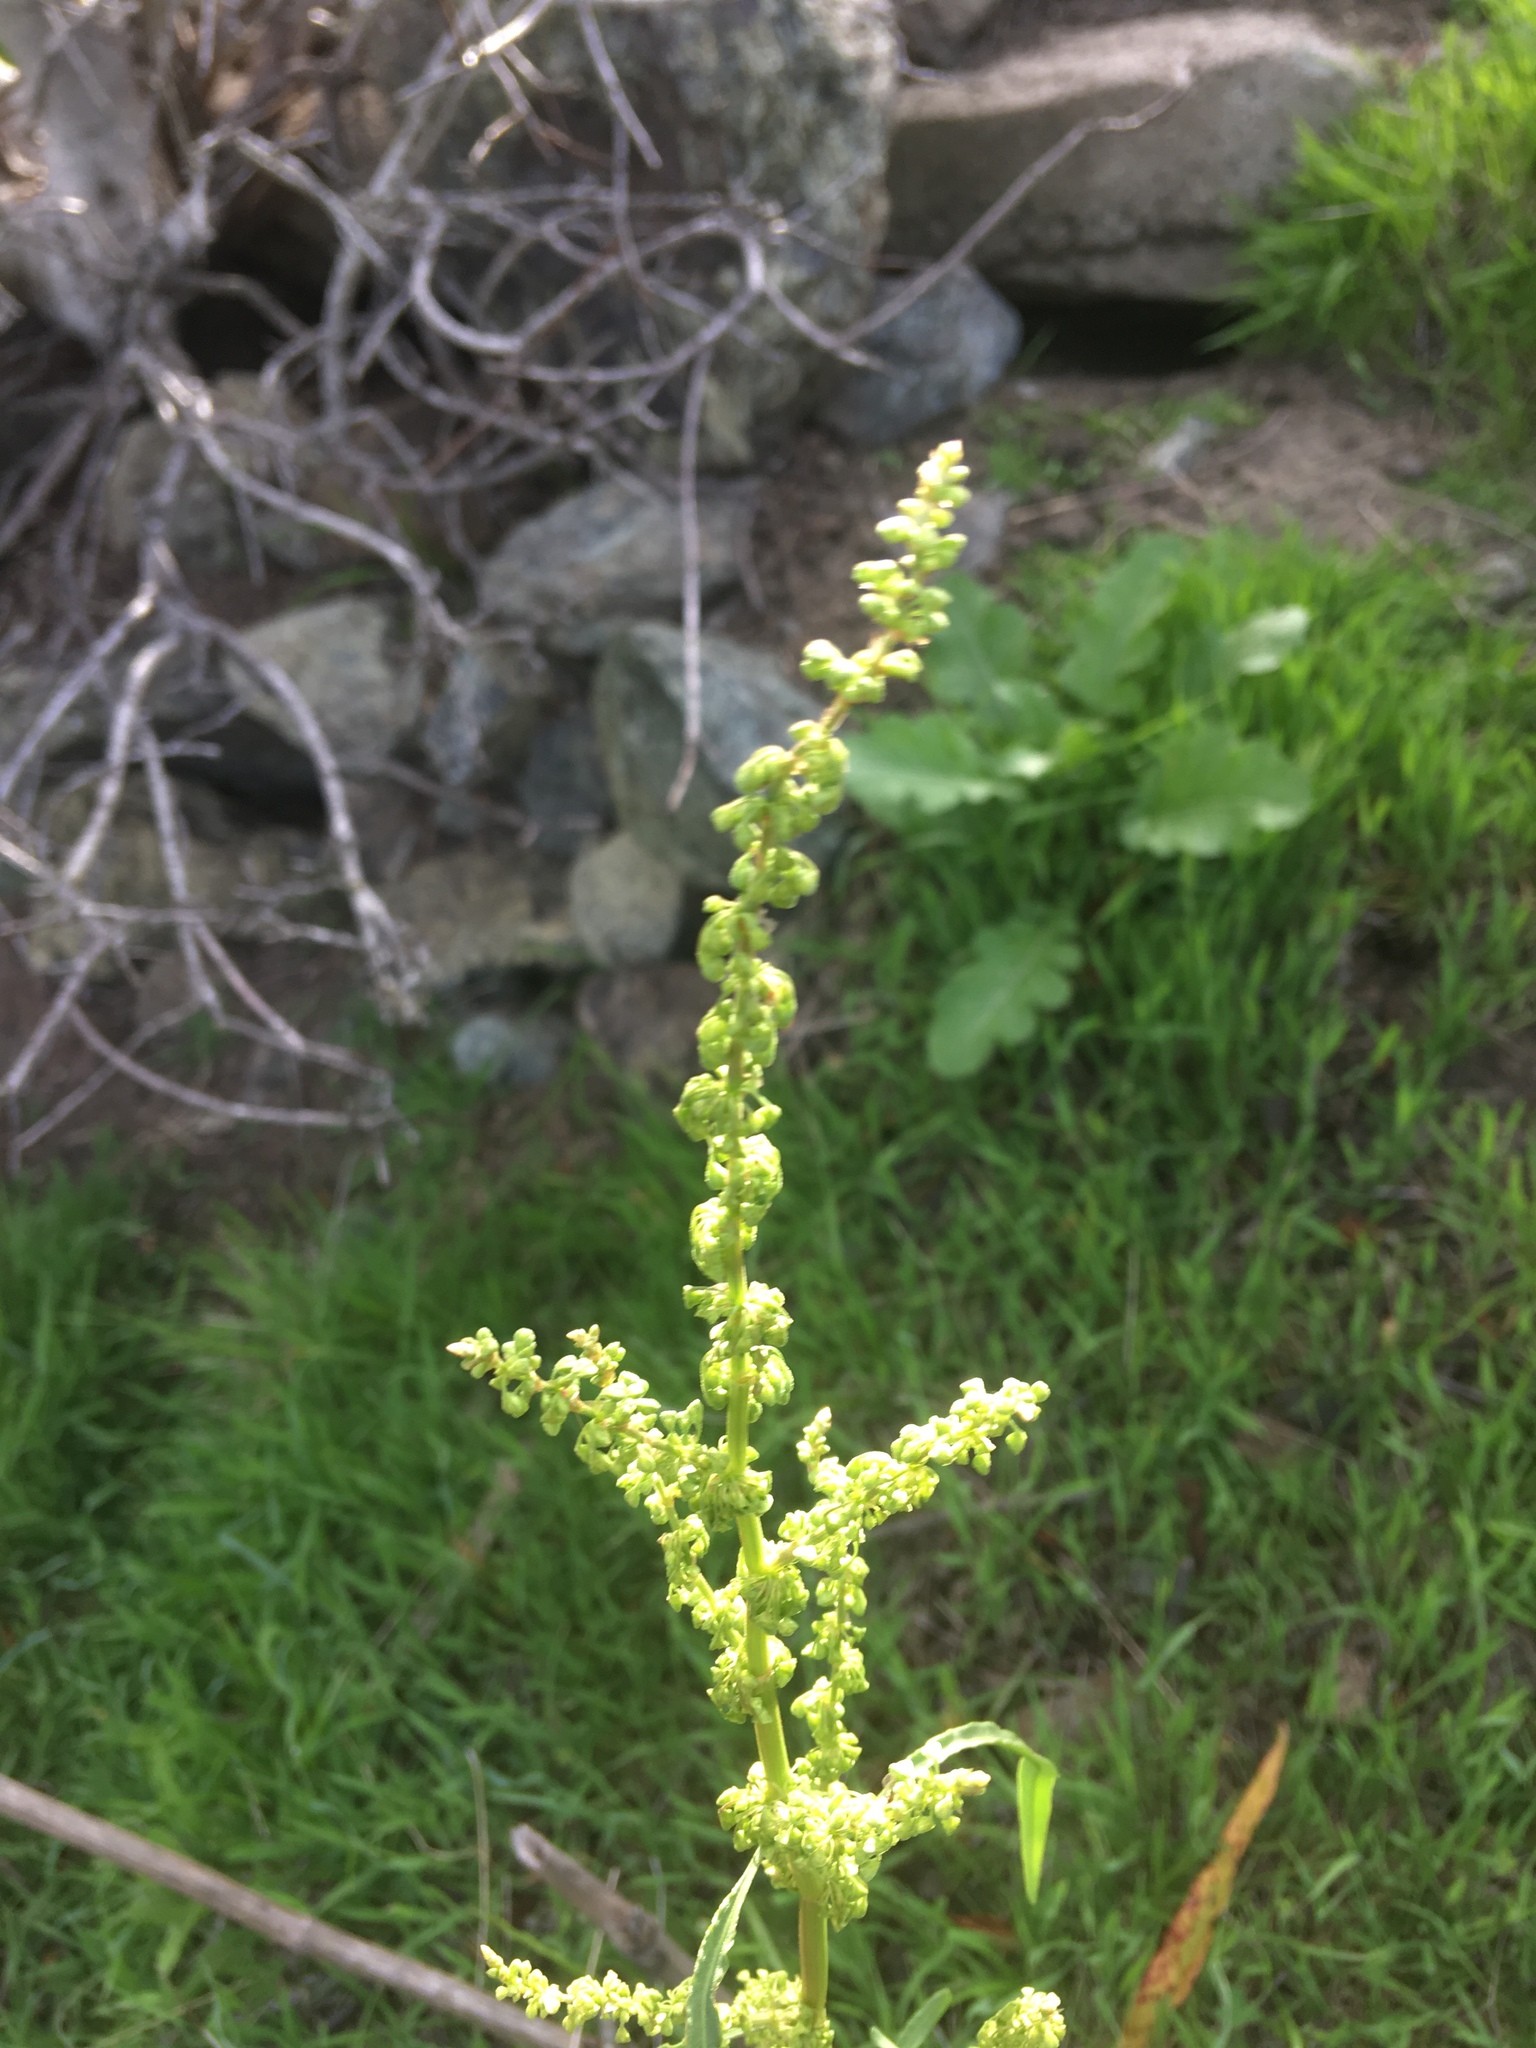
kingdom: Plantae
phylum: Tracheophyta
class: Magnoliopsida
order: Caryophyllales
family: Polygonaceae
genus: Rumex
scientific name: Rumex crispus
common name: Curled dock
